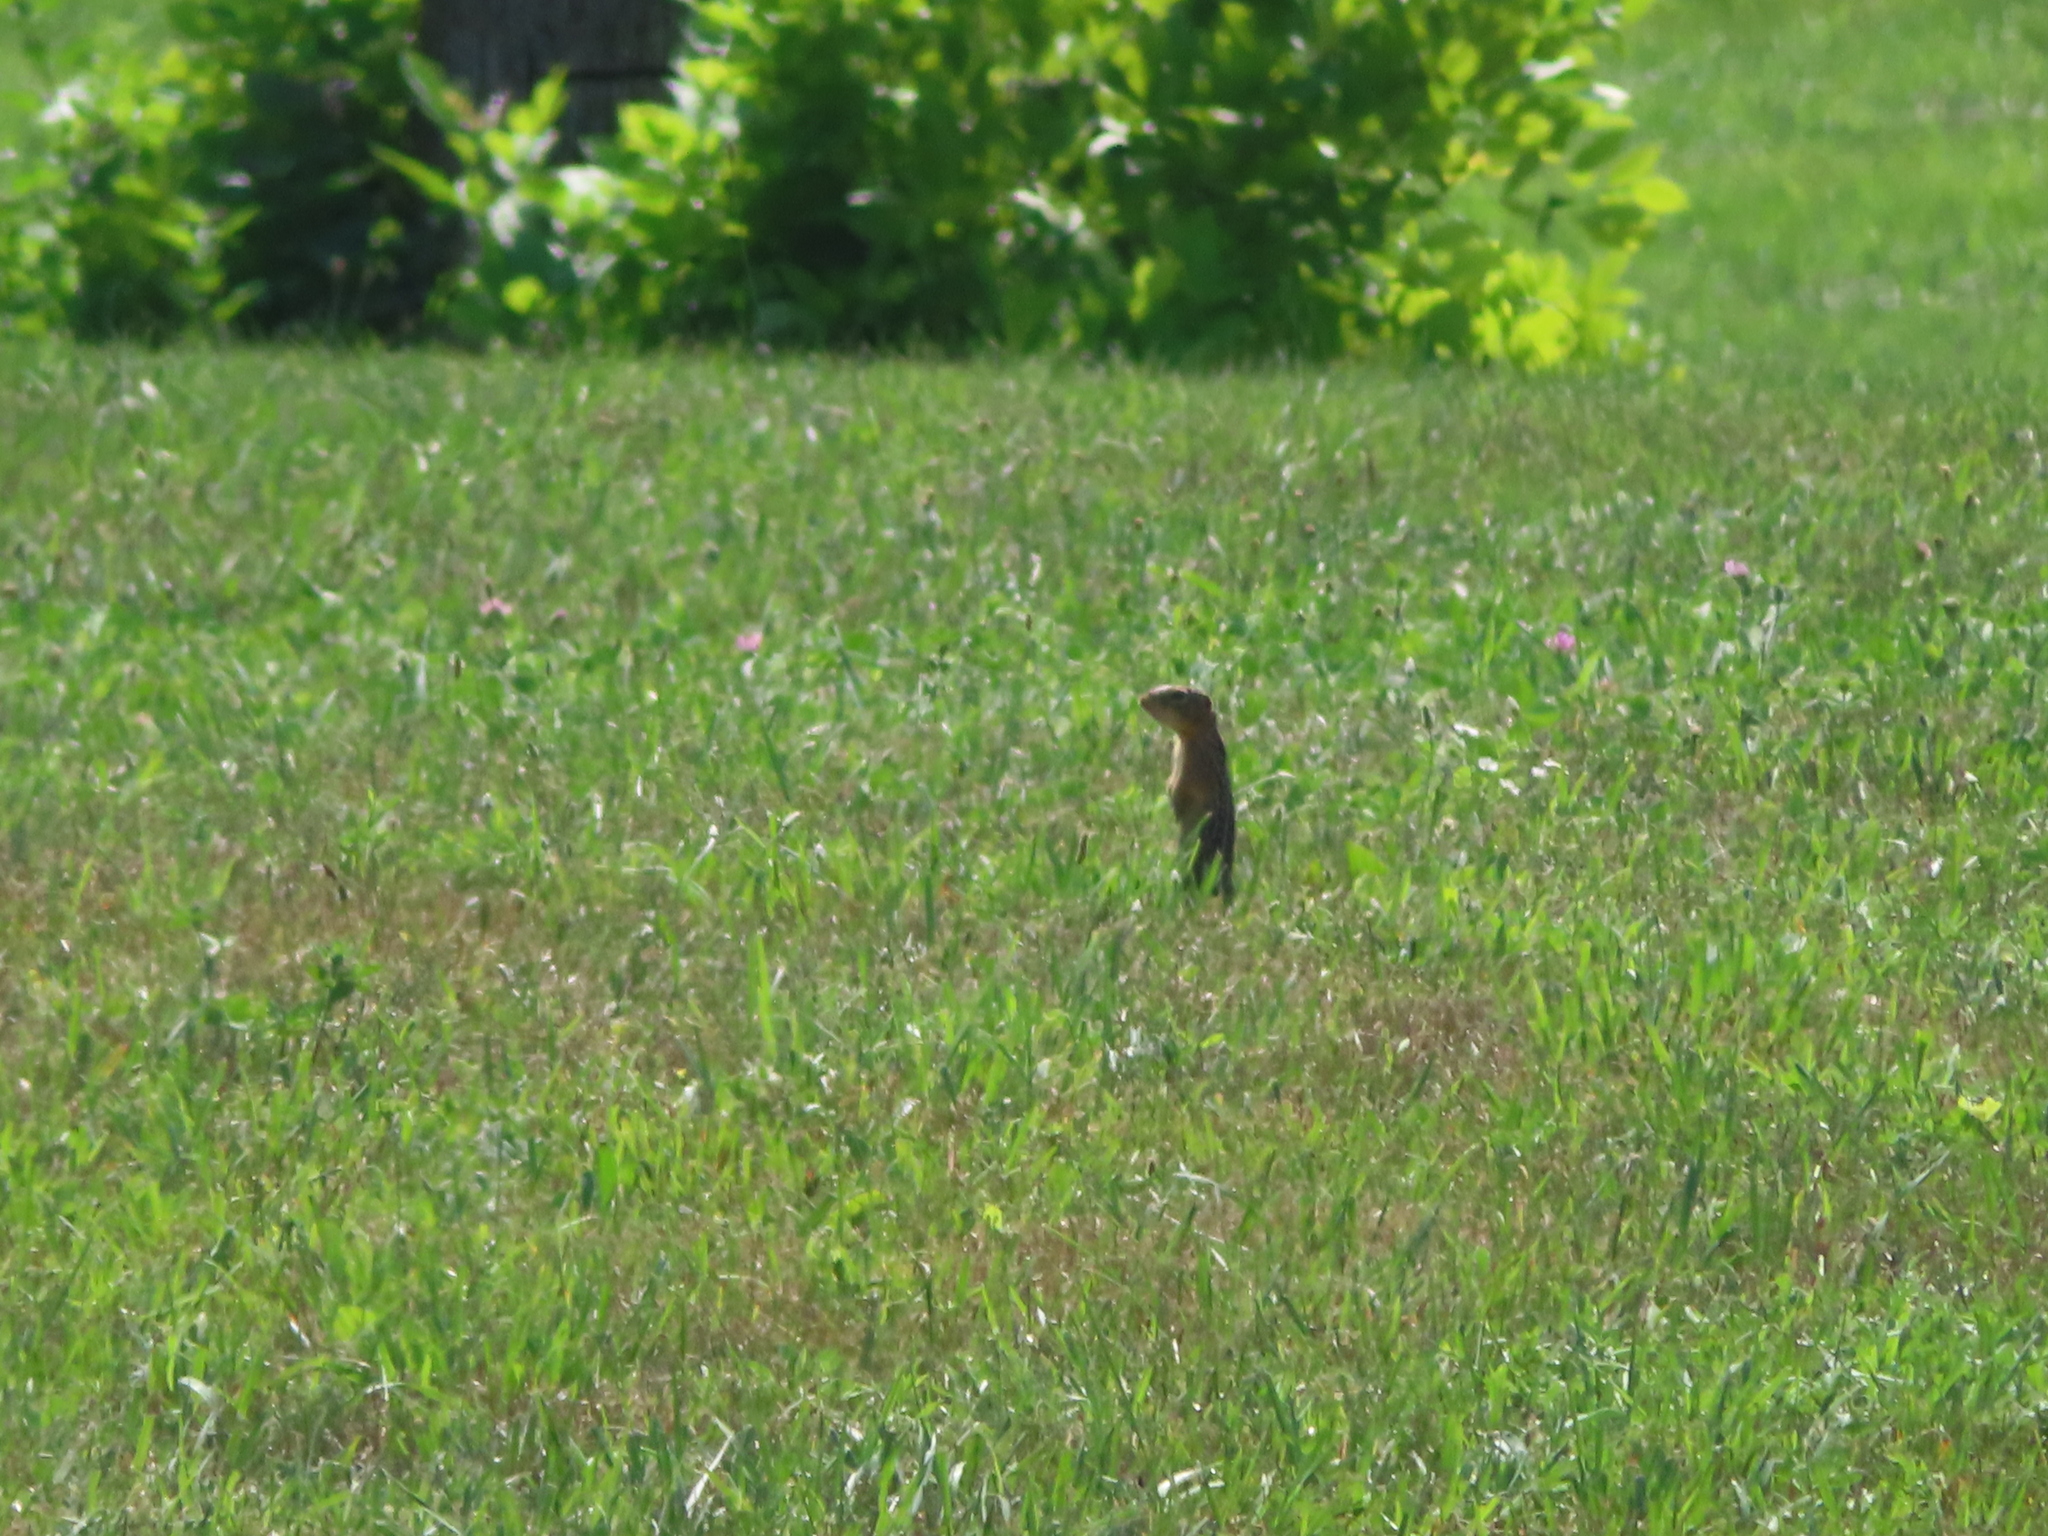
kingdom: Animalia
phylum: Chordata
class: Mammalia
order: Rodentia
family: Sciuridae
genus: Ictidomys
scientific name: Ictidomys tridecemlineatus
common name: Thirteen-lined ground squirrel
